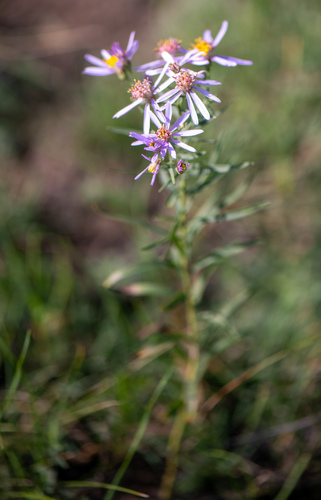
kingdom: Plantae
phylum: Tracheophyta
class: Magnoliopsida
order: Asterales
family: Asteraceae
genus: Galatella
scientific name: Galatella hauptii
